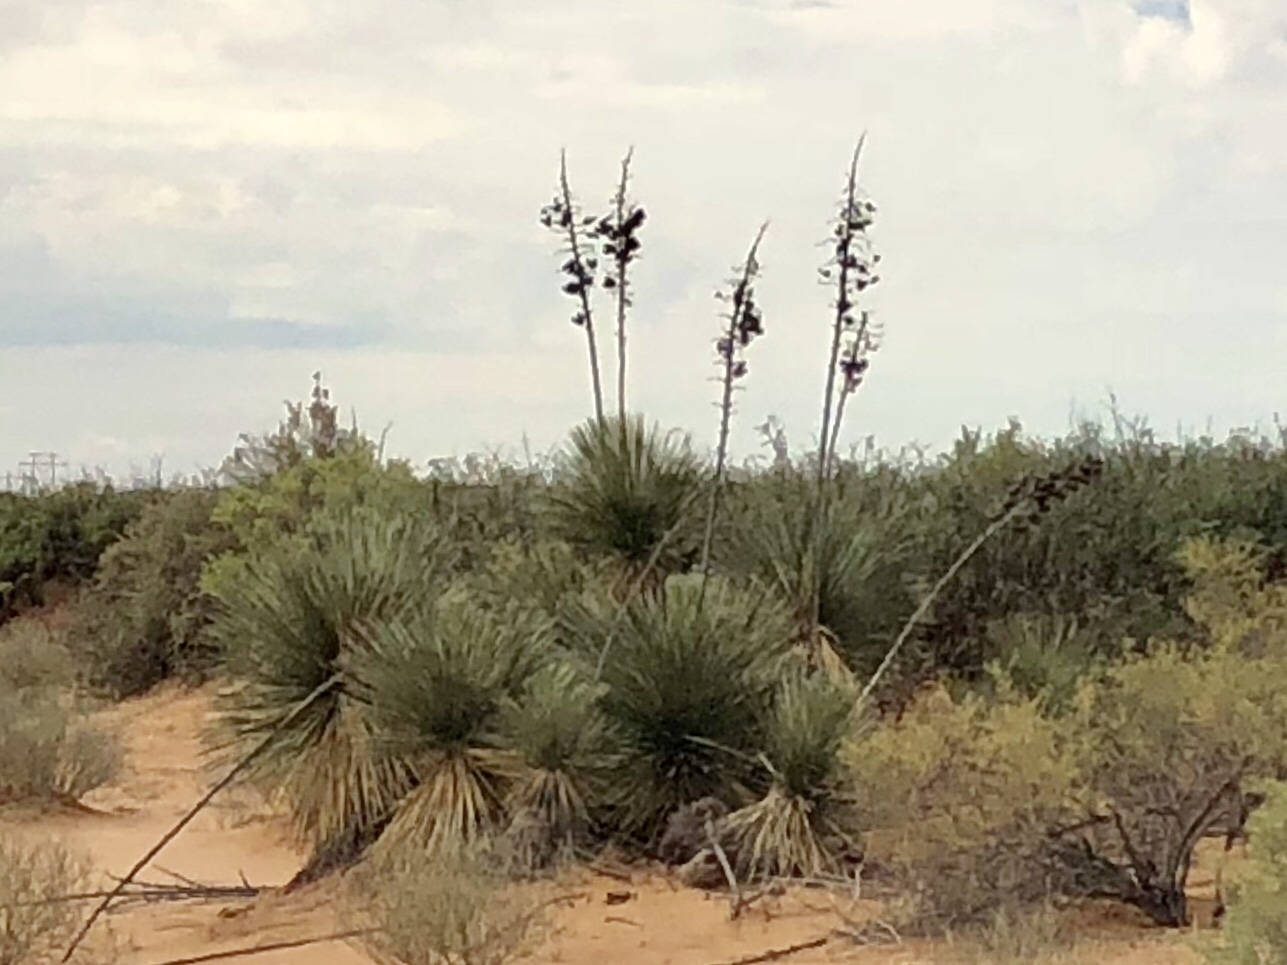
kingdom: Plantae
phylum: Tracheophyta
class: Liliopsida
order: Asparagales
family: Asparagaceae
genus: Yucca
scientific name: Yucca elata
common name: Palmella
